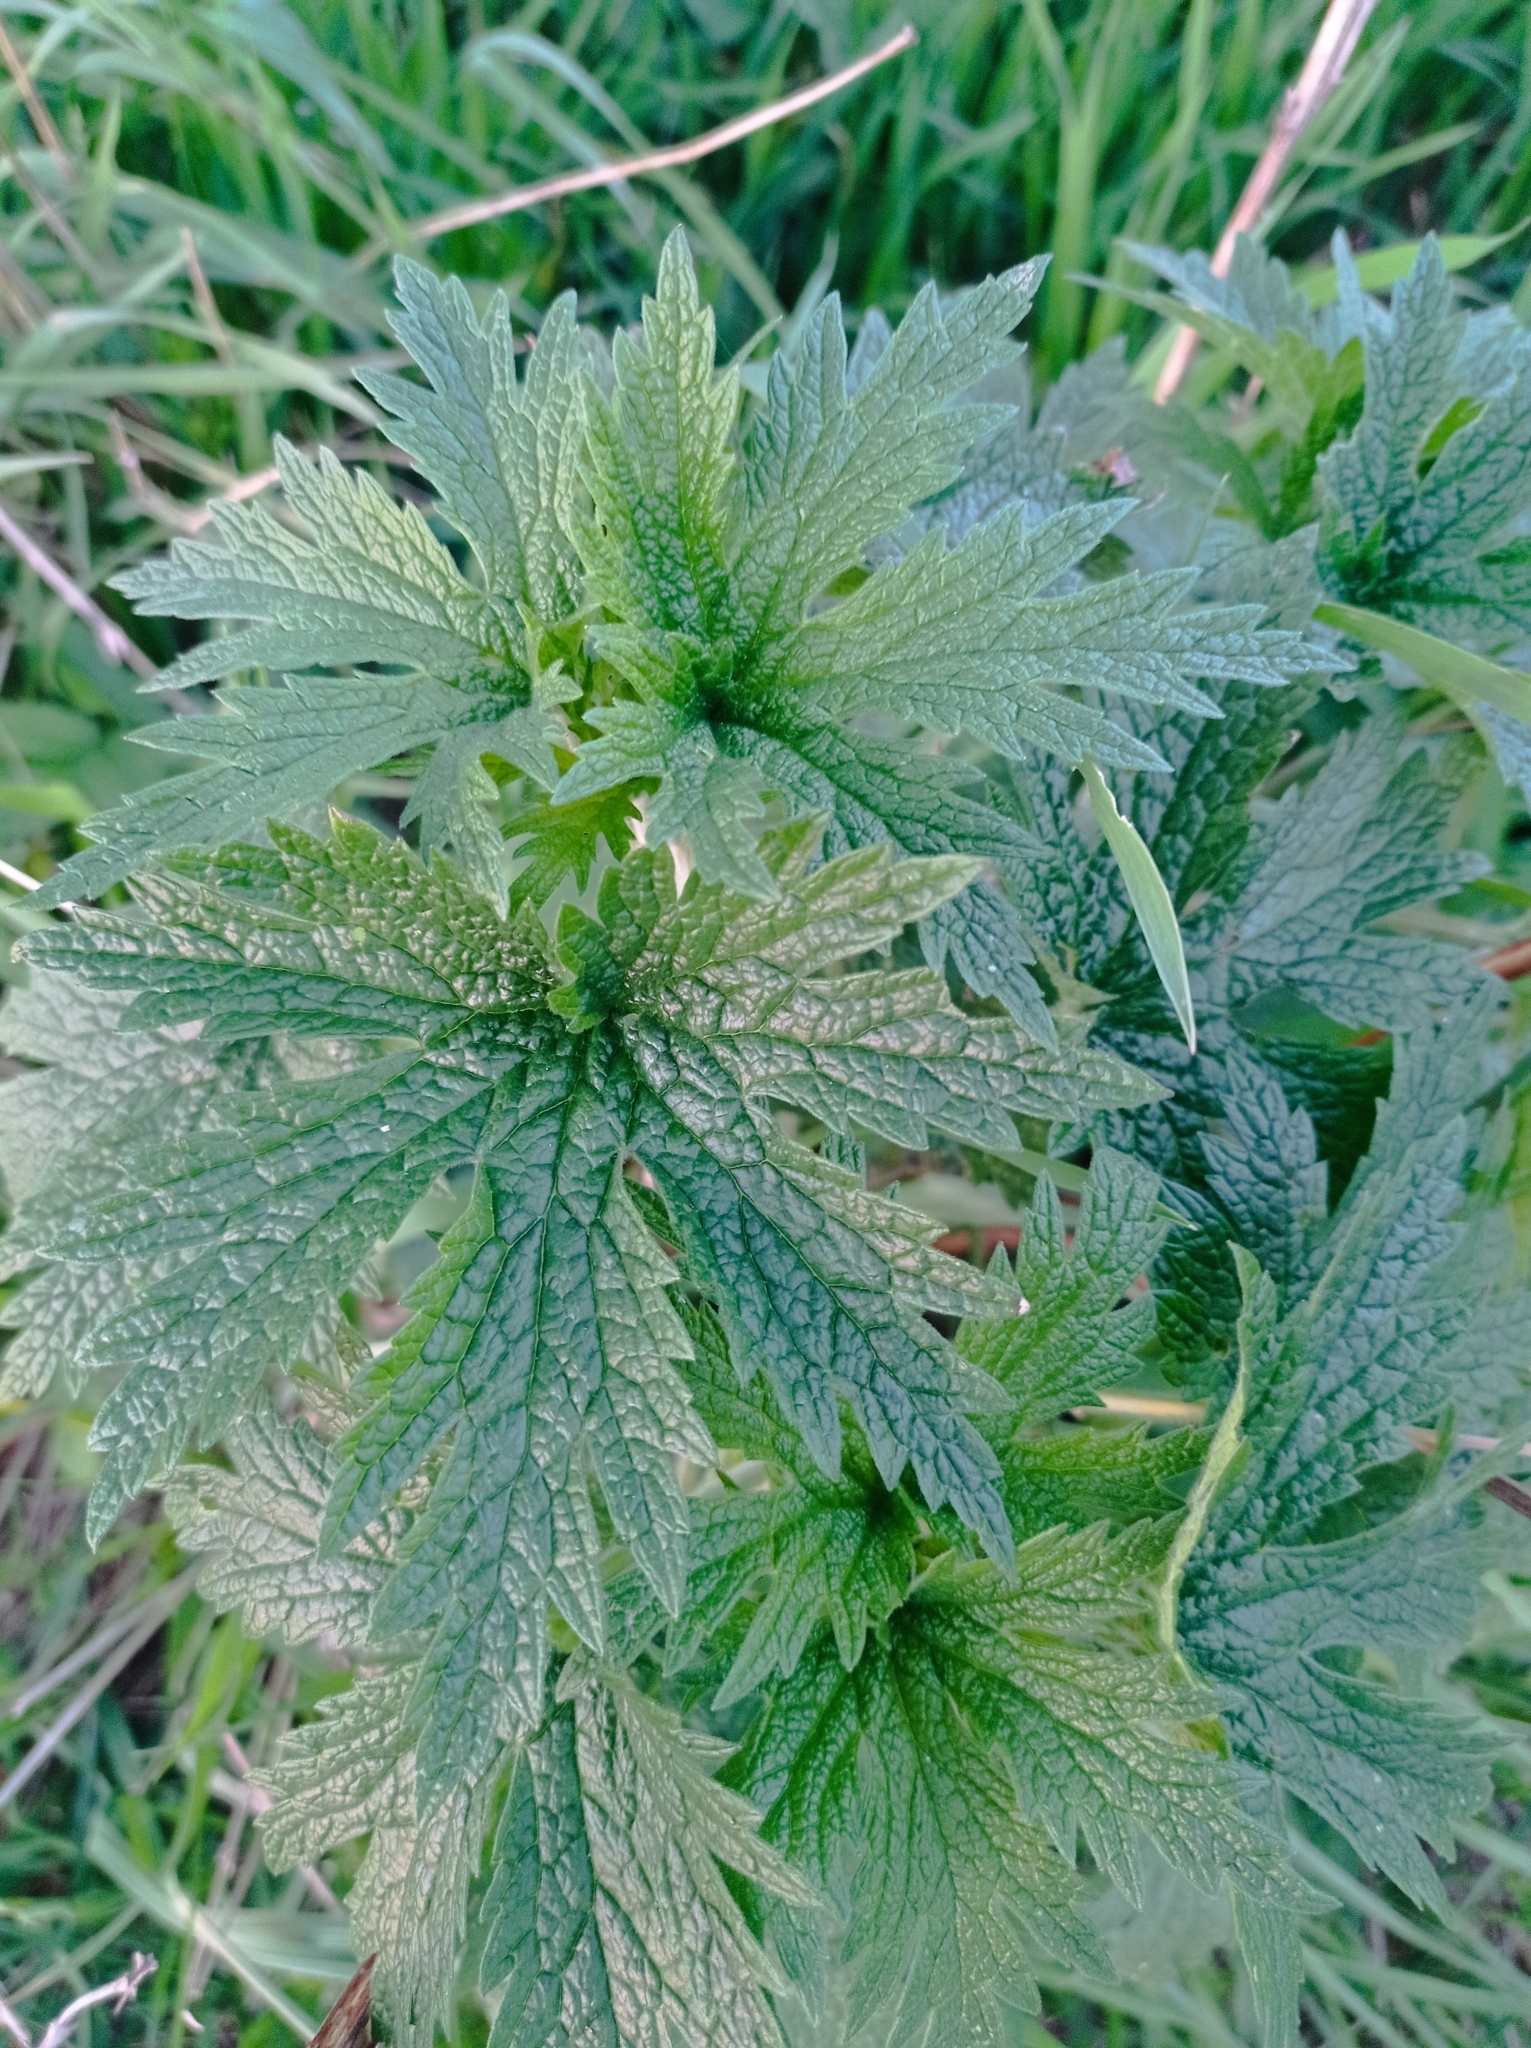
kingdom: Plantae
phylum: Tracheophyta
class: Magnoliopsida
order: Lamiales
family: Lamiaceae
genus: Leonurus
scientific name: Leonurus quinquelobatus
